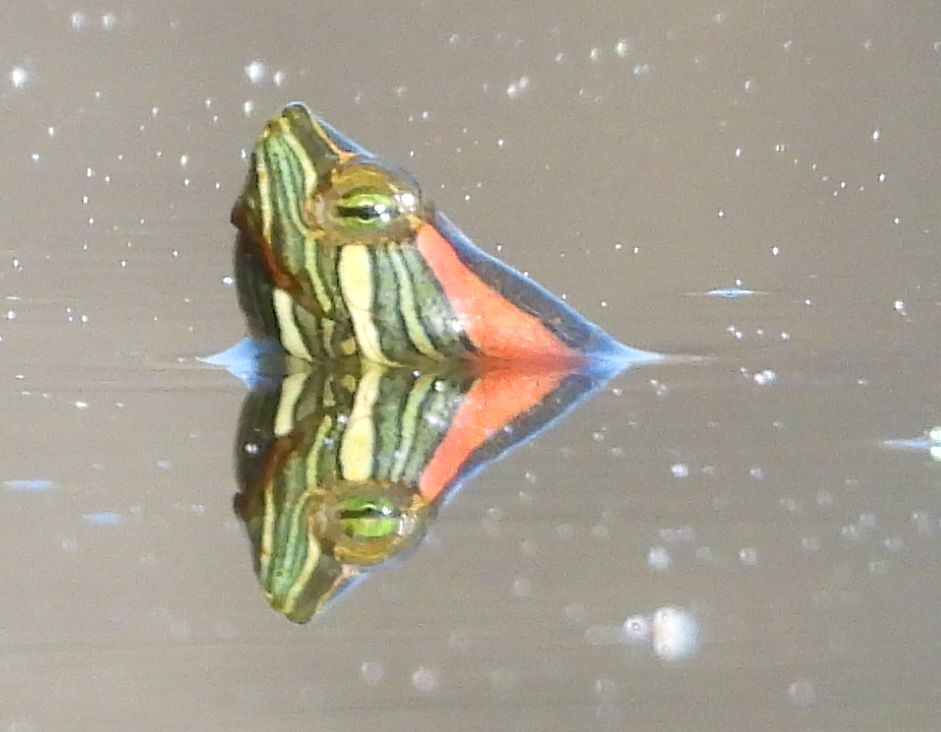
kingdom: Animalia
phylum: Chordata
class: Testudines
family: Emydidae
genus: Trachemys
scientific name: Trachemys scripta
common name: Slider
